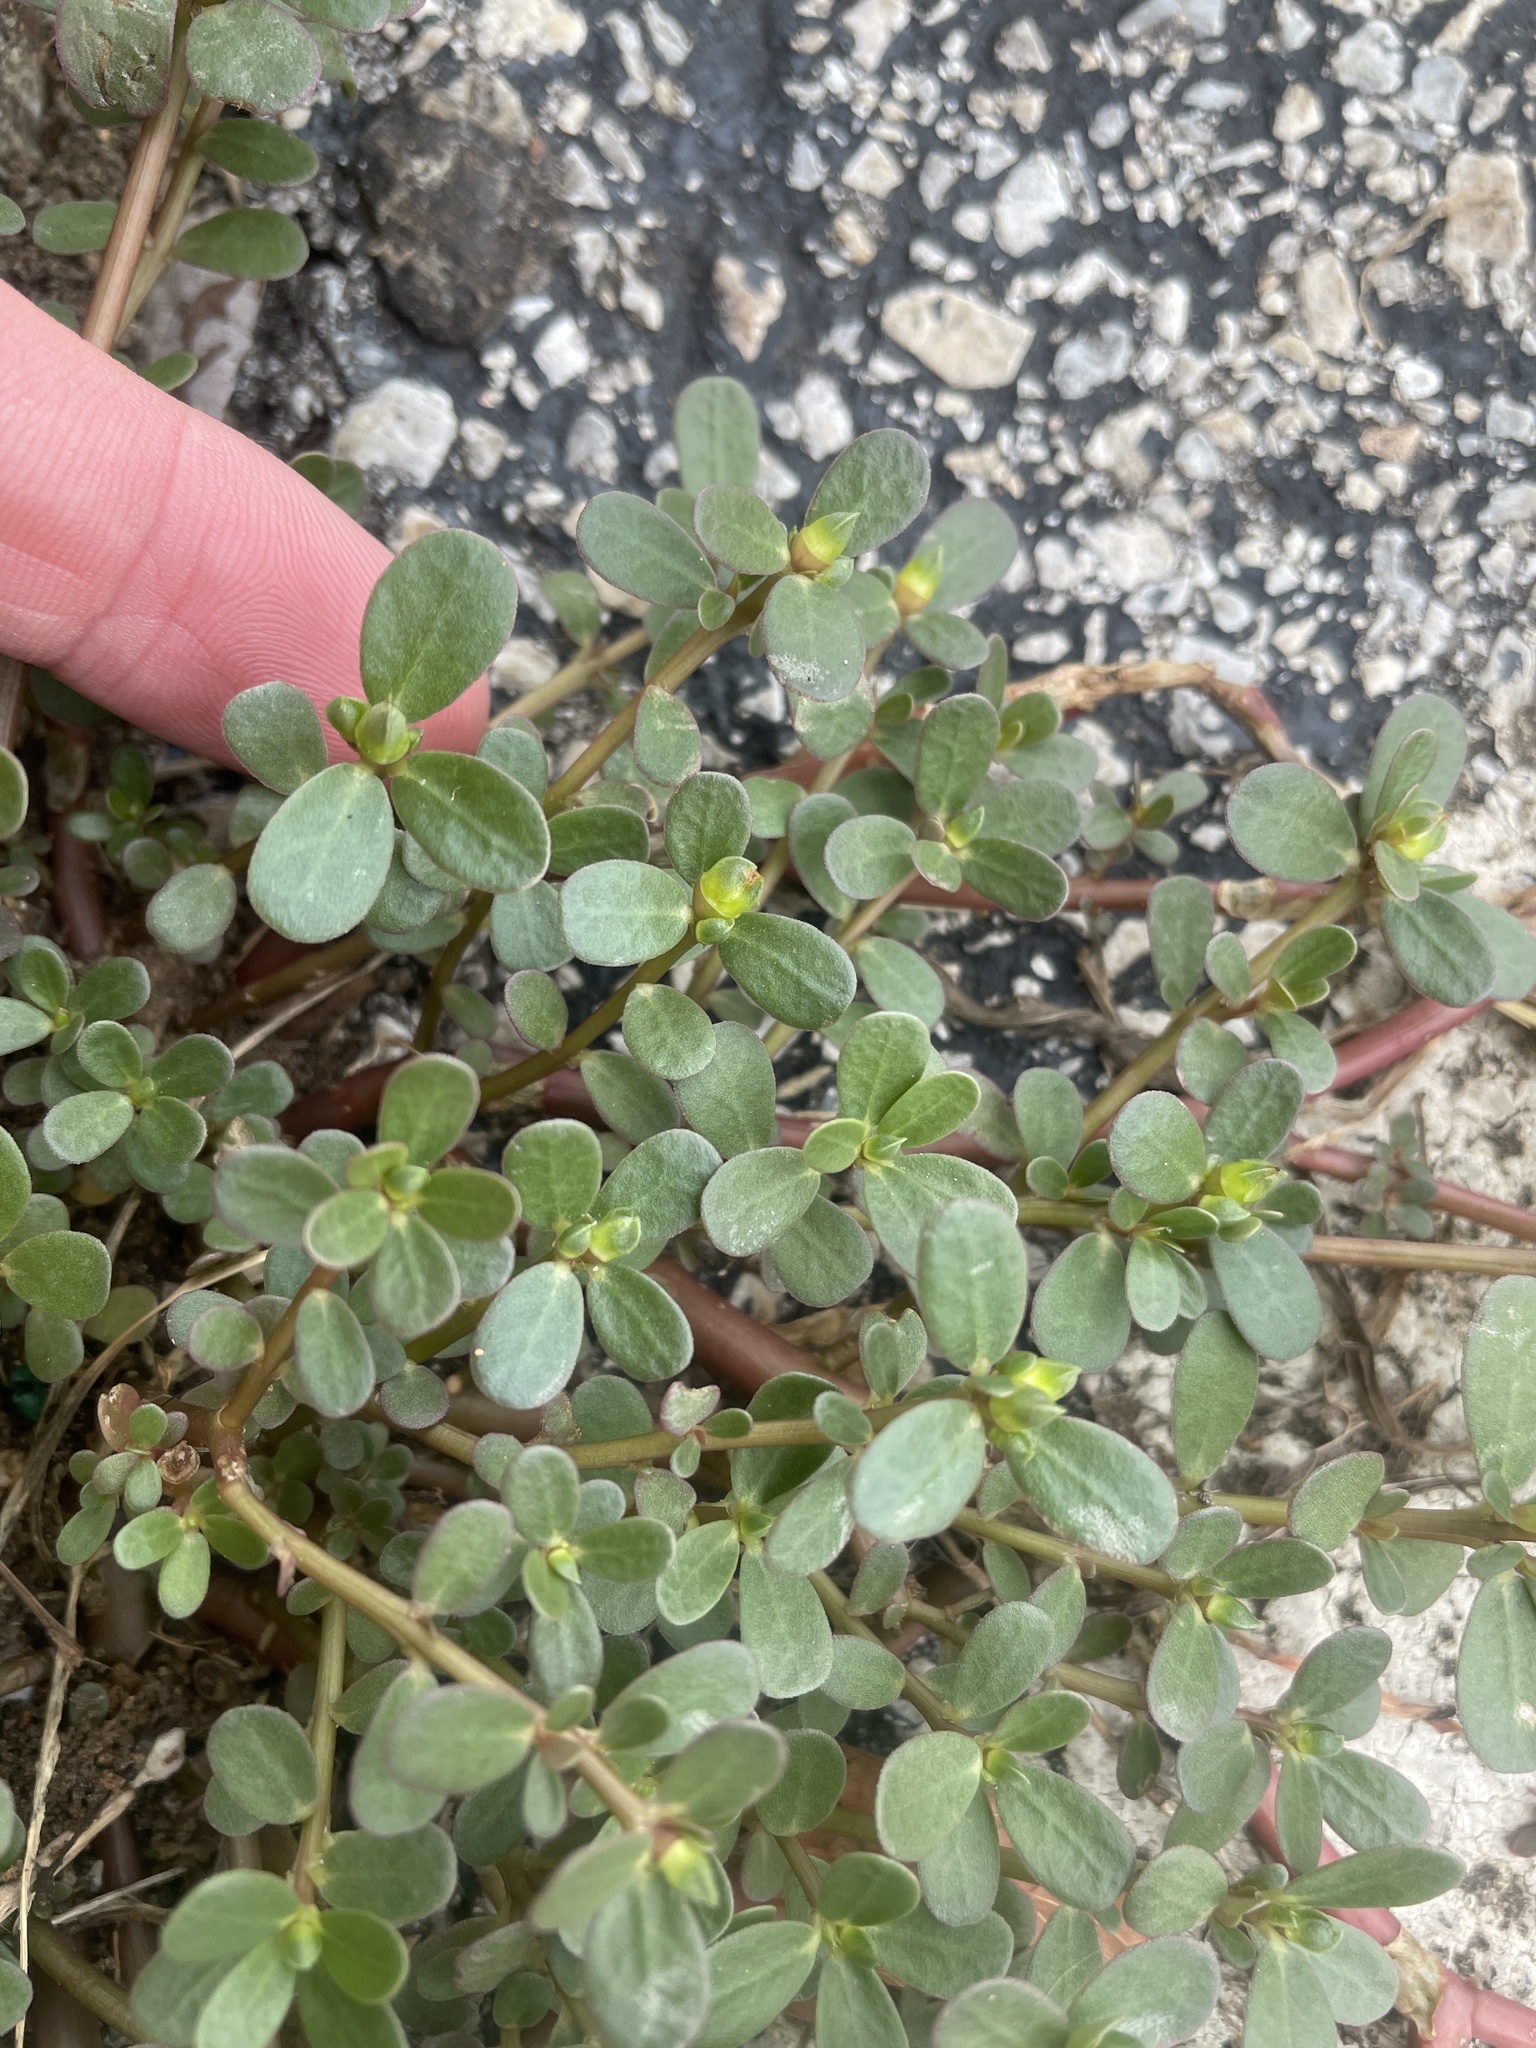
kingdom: Plantae
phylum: Tracheophyta
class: Magnoliopsida
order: Caryophyllales
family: Portulacaceae
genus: Portulaca
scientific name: Portulaca oleracea
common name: Common purslane
